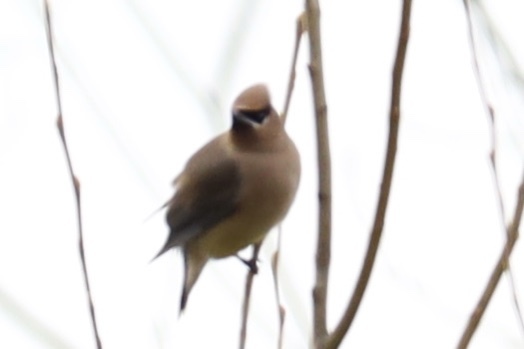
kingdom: Animalia
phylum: Chordata
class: Aves
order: Passeriformes
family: Bombycillidae
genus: Bombycilla
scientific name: Bombycilla cedrorum
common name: Cedar waxwing
